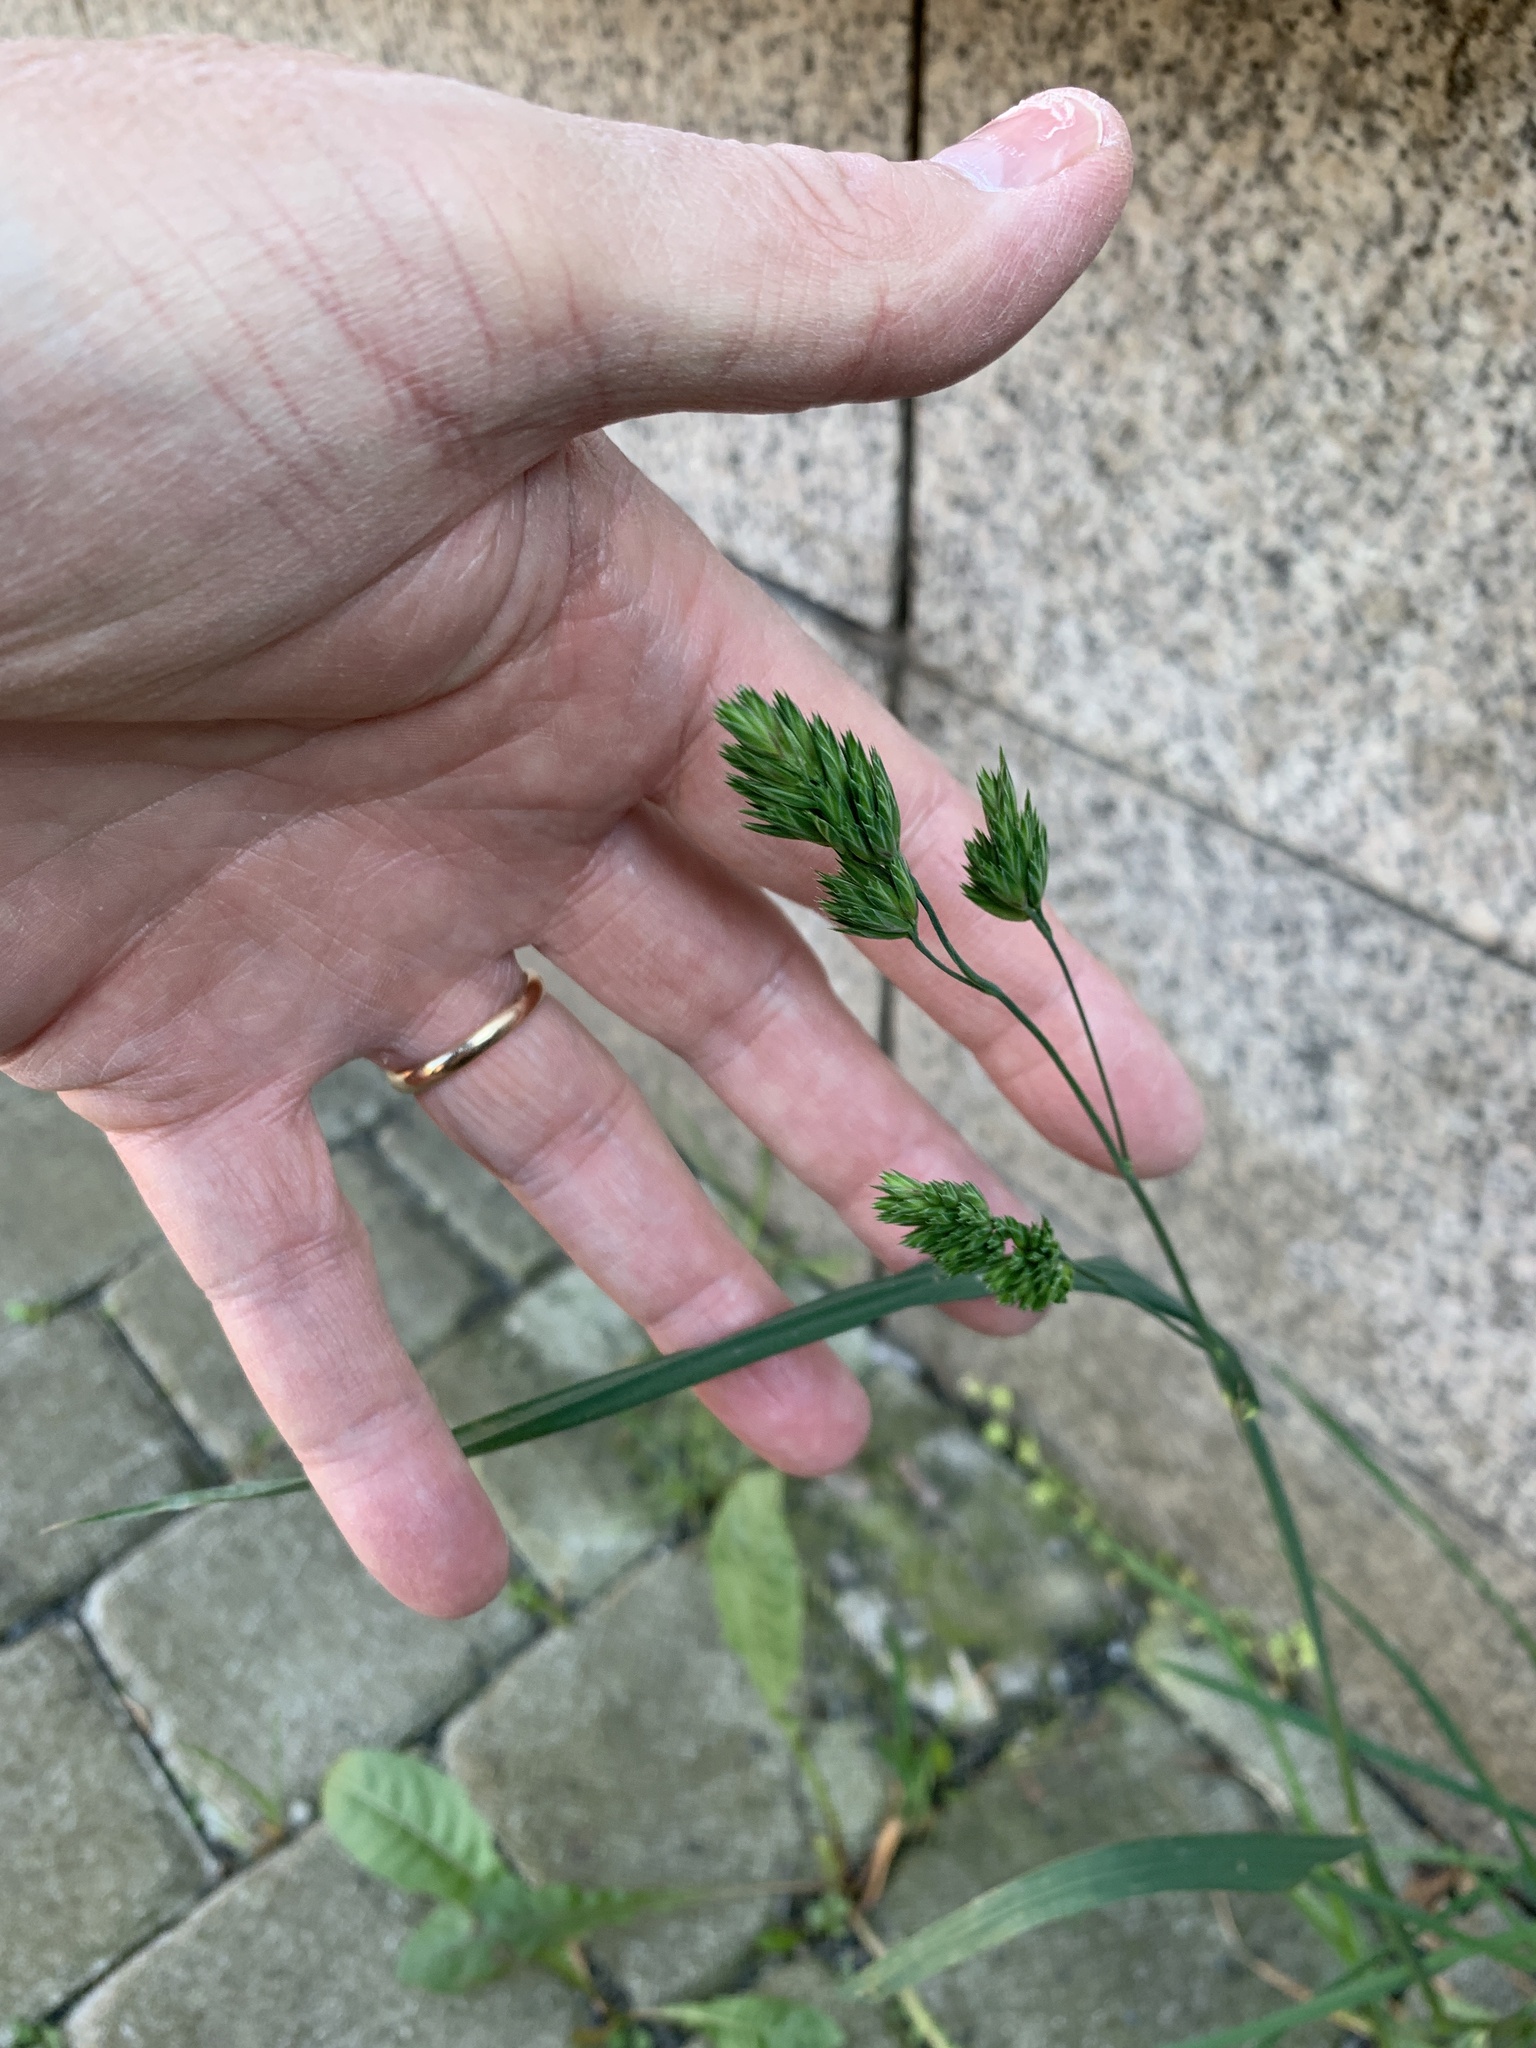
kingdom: Plantae
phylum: Tracheophyta
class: Liliopsida
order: Poales
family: Poaceae
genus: Dactylis
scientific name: Dactylis glomerata
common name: Orchardgrass
